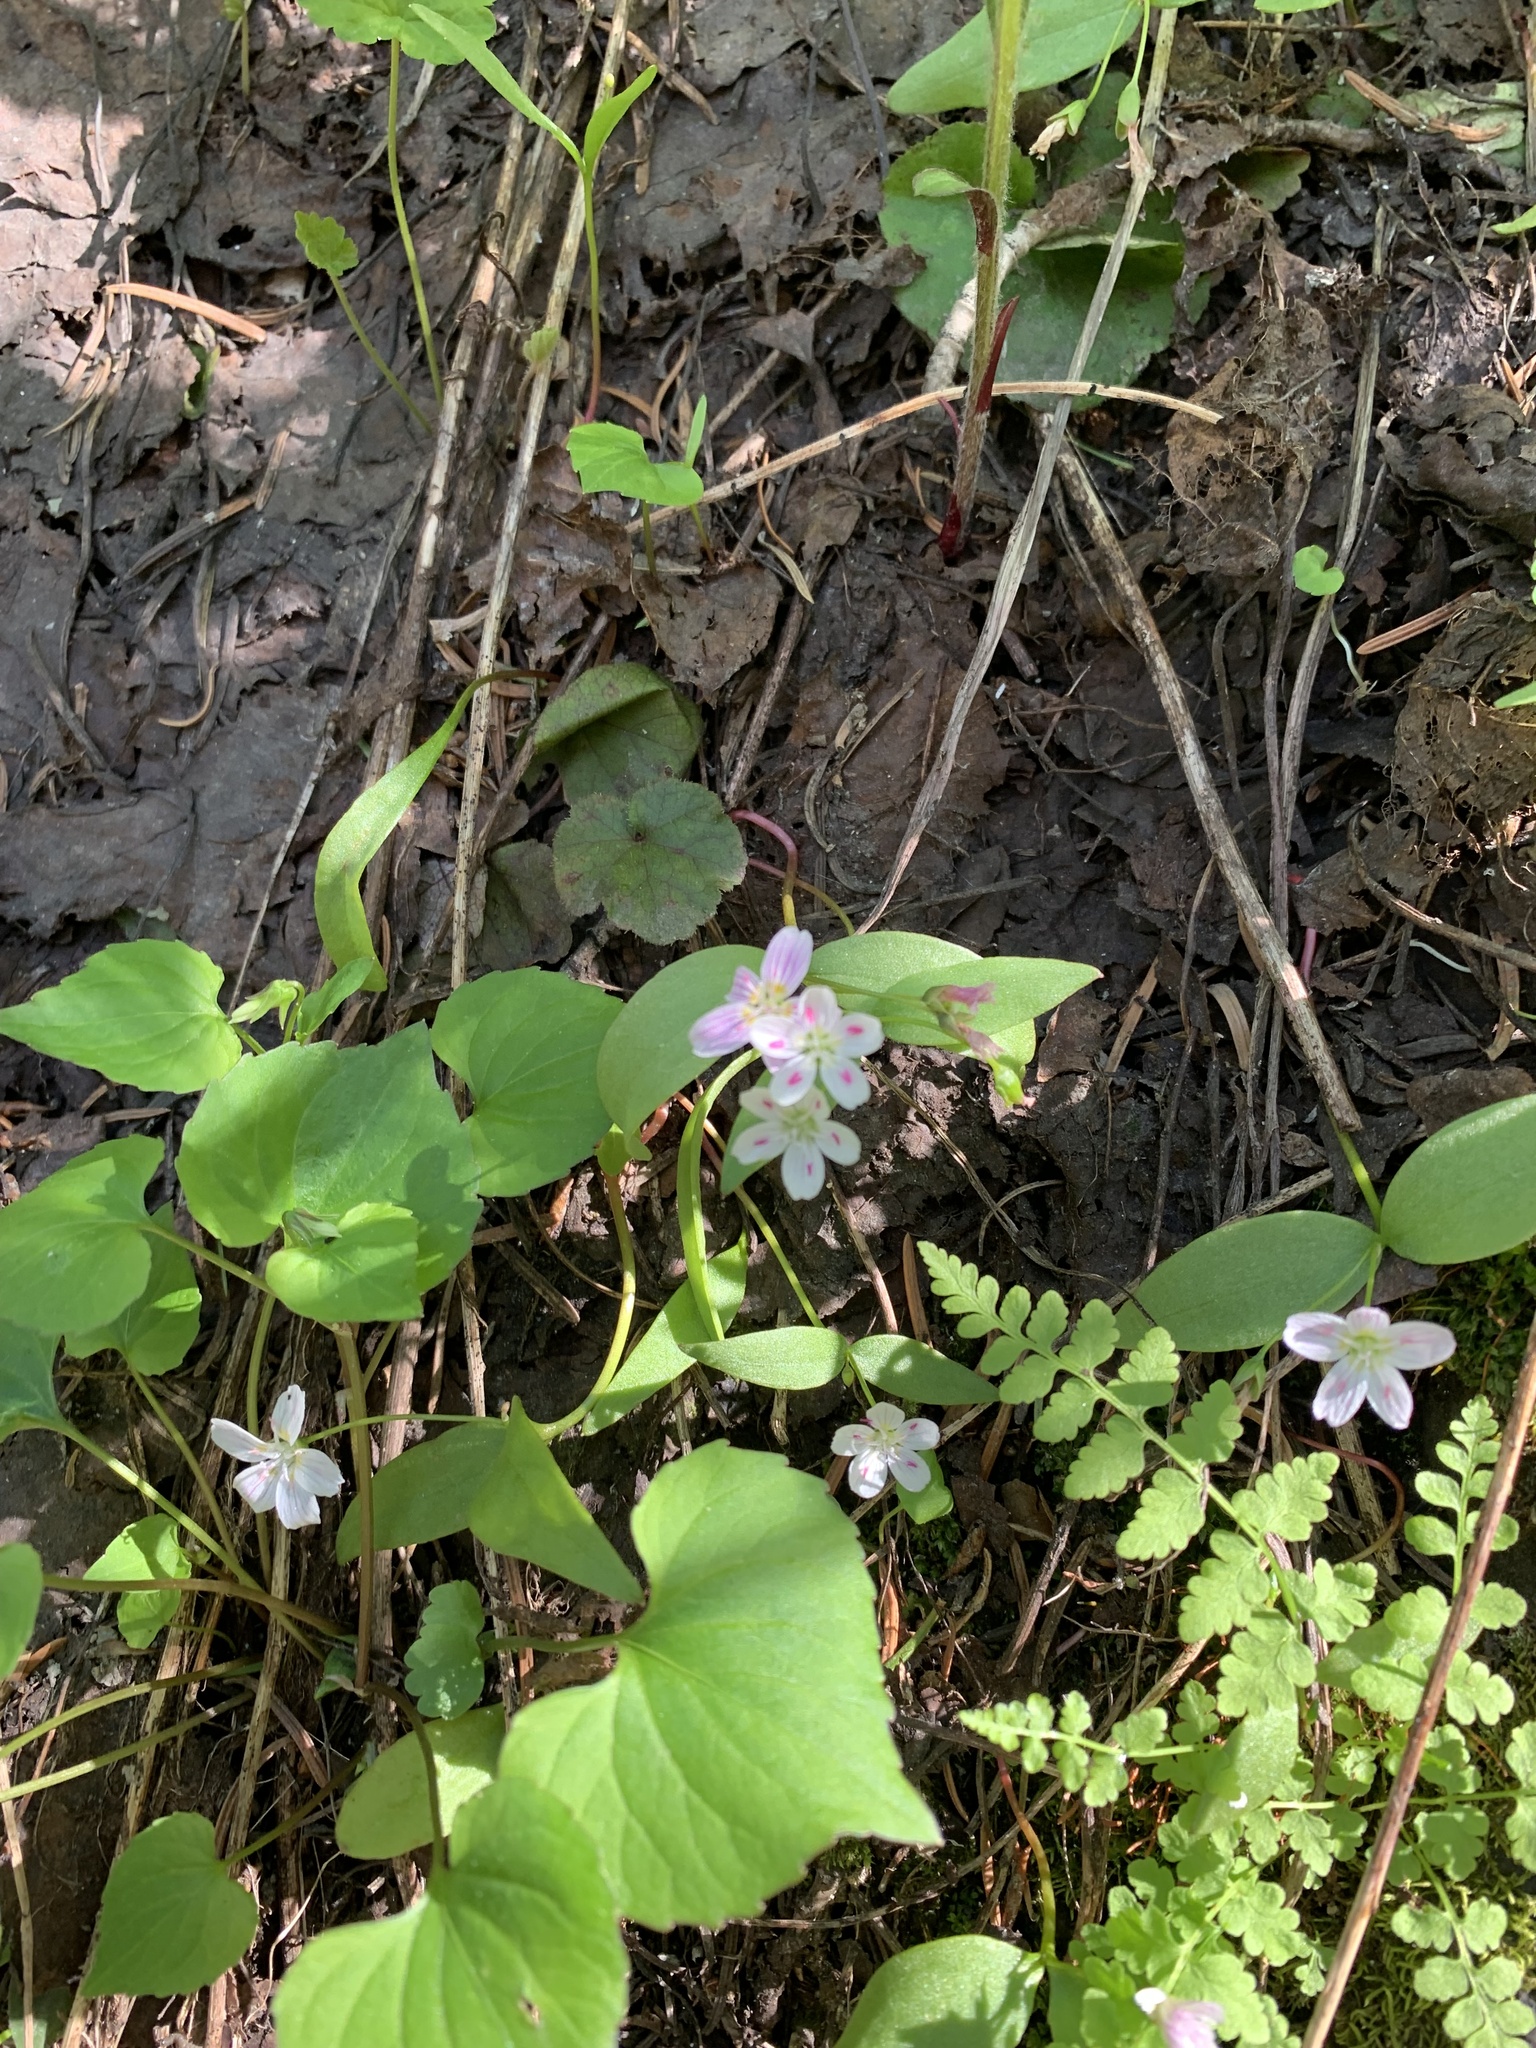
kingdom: Plantae
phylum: Tracheophyta
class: Magnoliopsida
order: Caryophyllales
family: Montiaceae
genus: Claytonia
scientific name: Claytonia lanceolata
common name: Western spring-beauty
